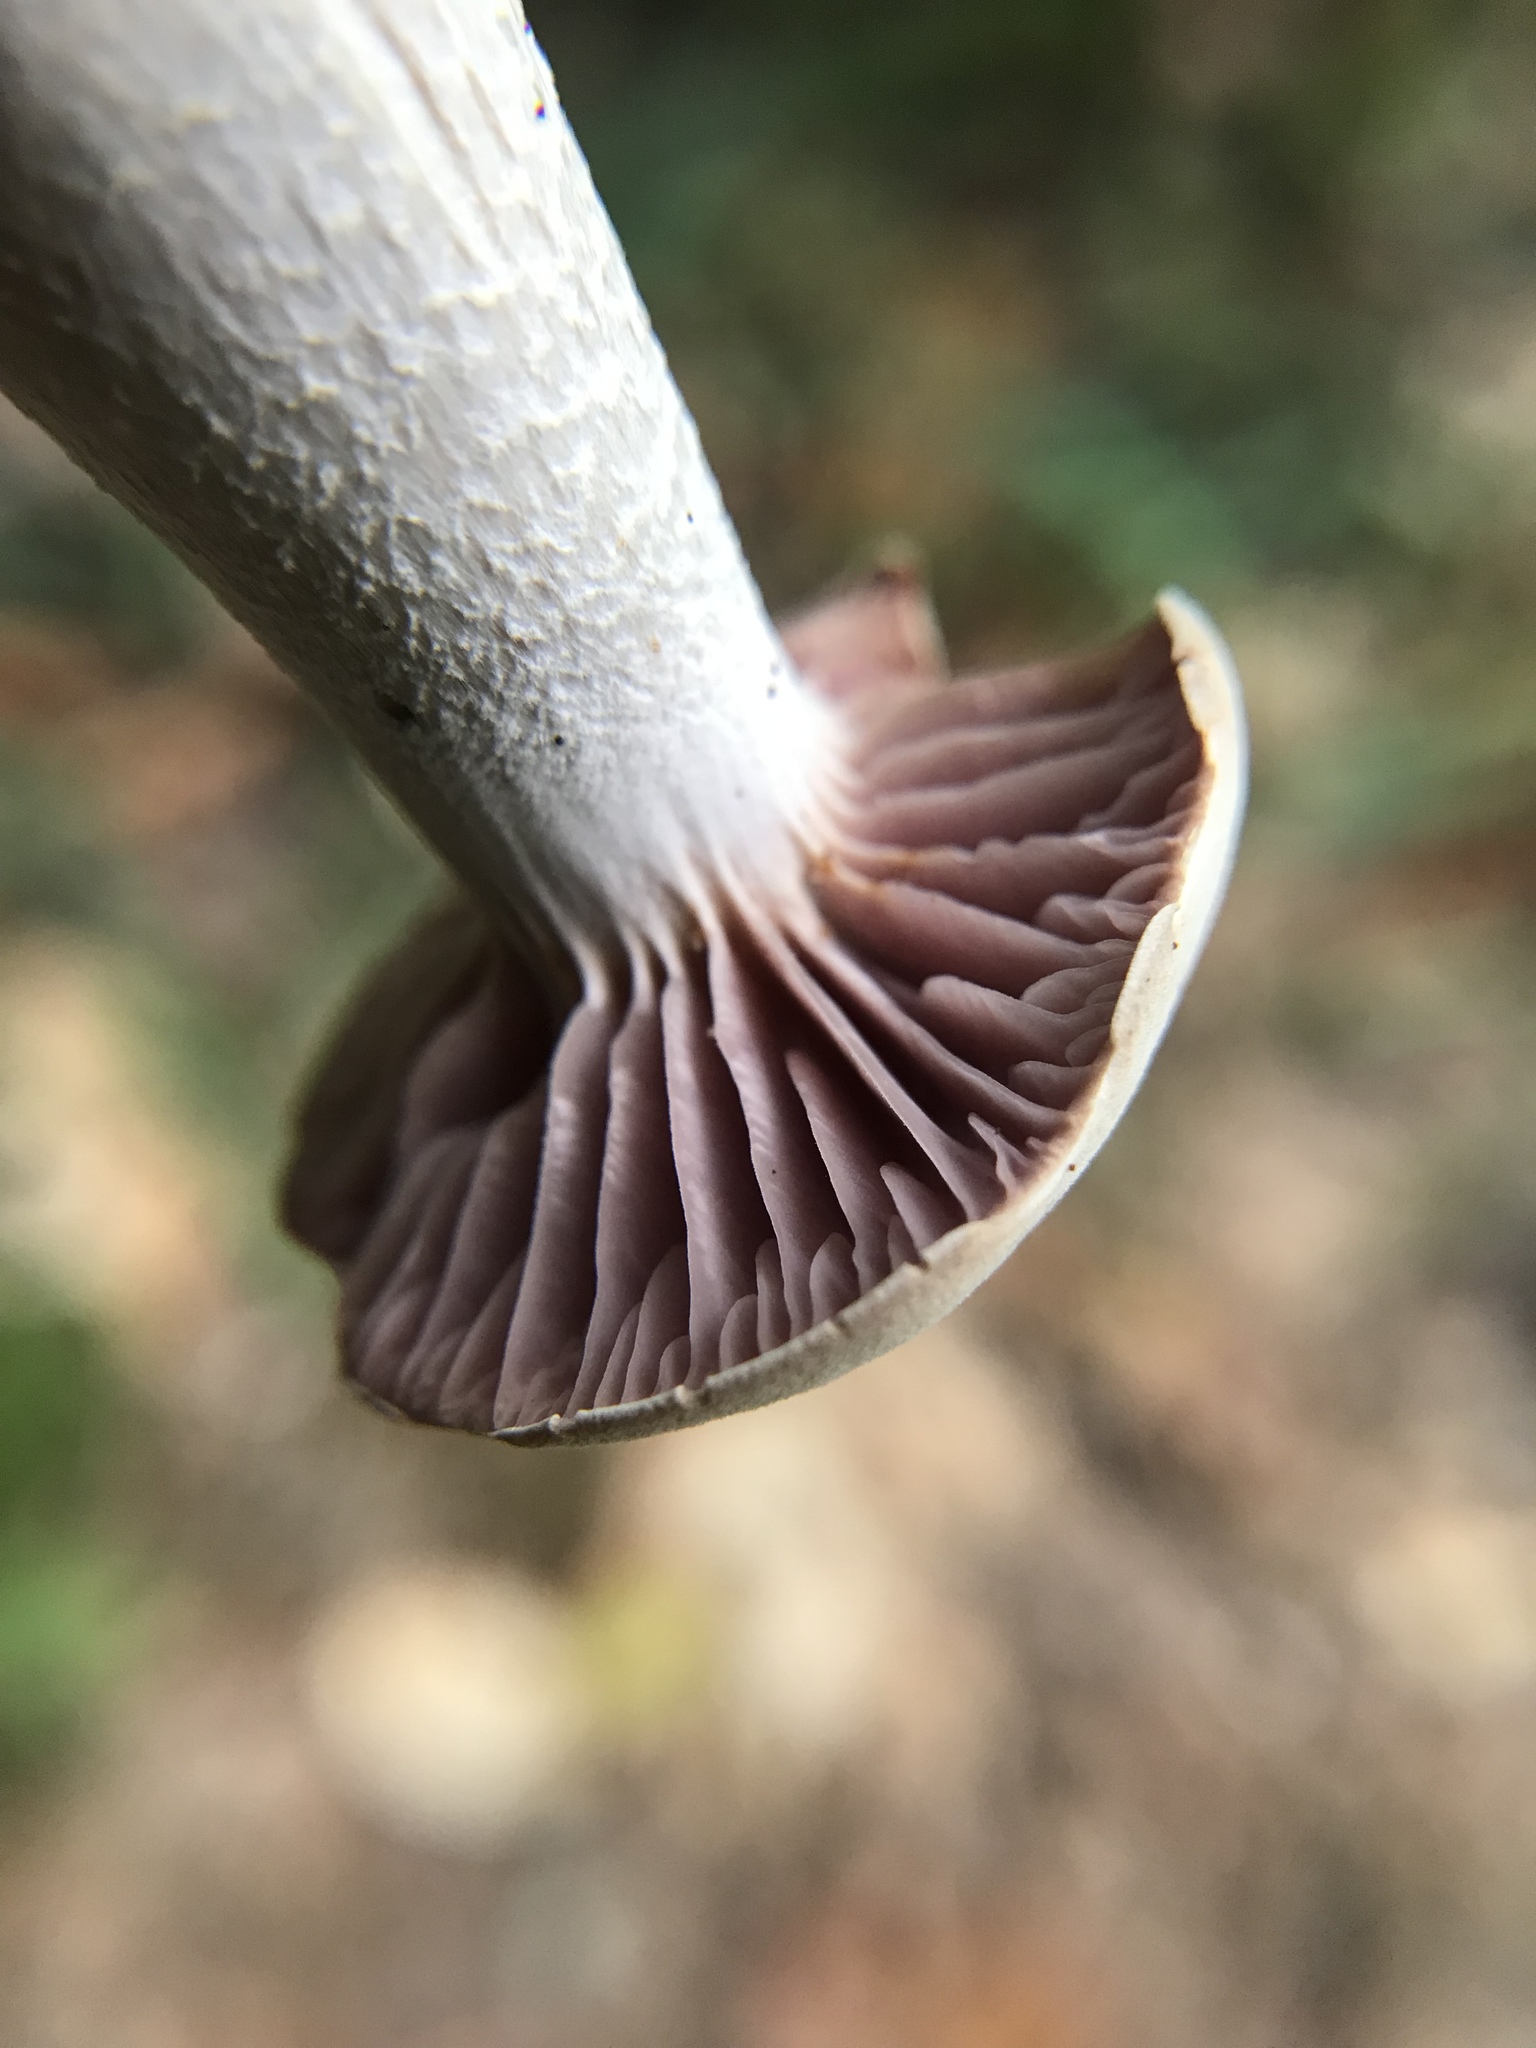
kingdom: Fungi
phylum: Basidiomycota
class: Agaricomycetes
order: Agaricales
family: Hydnangiaceae
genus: Laccaria
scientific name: Laccaria ochropurpurea
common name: Purple laccaria
